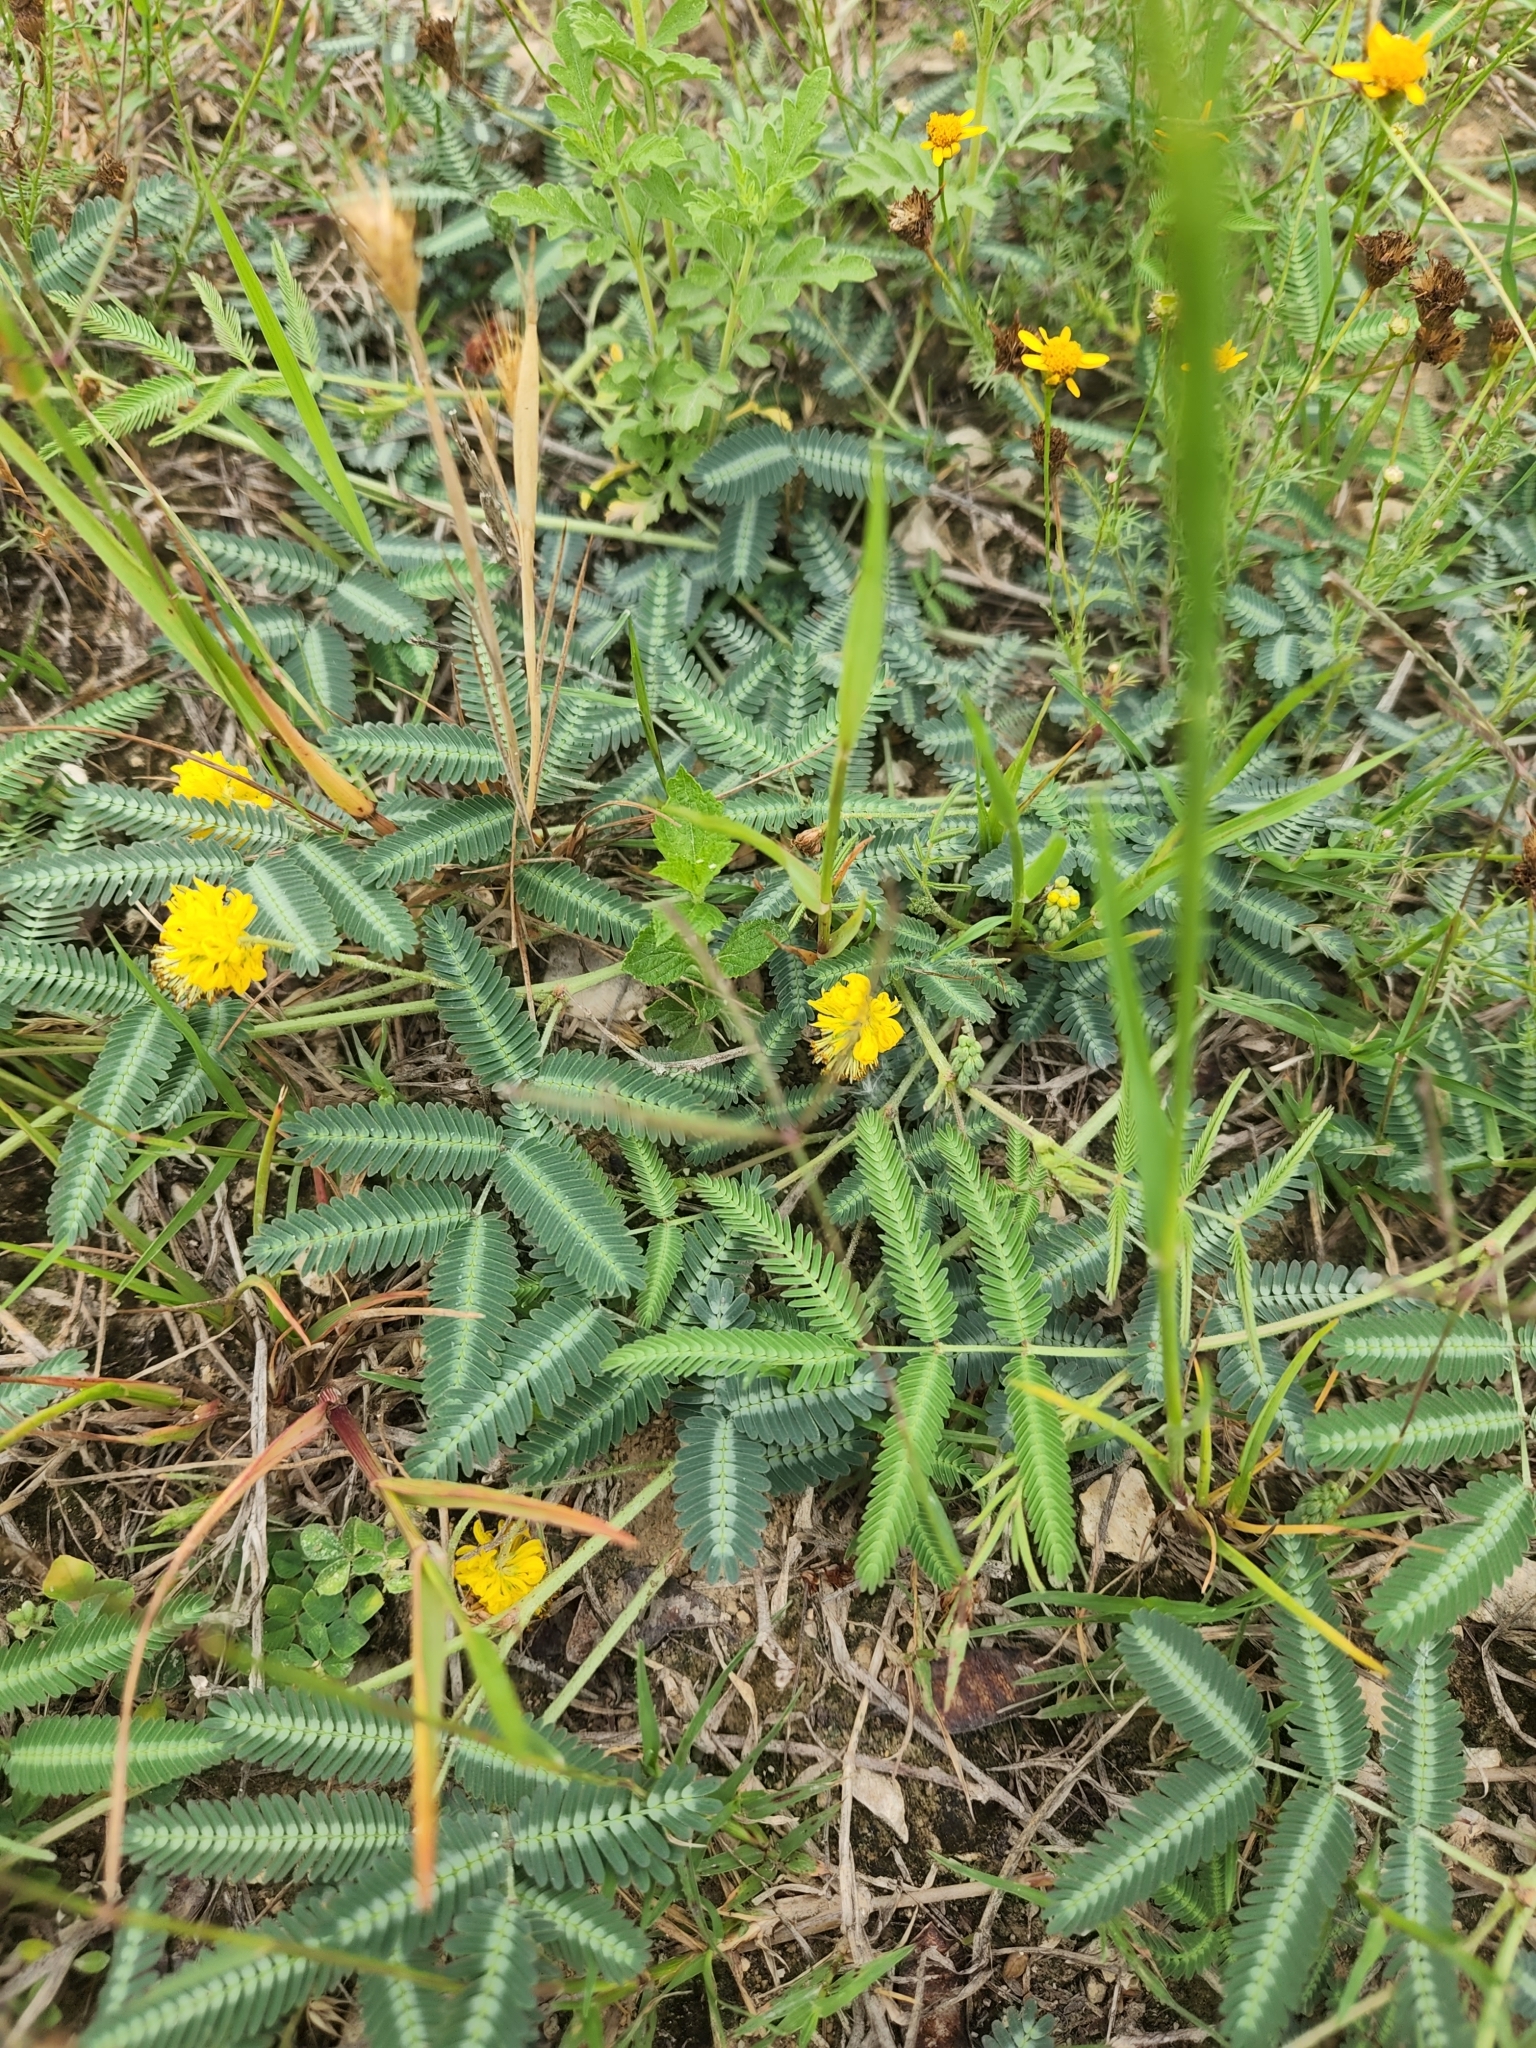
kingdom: Plantae
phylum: Tracheophyta
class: Magnoliopsida
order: Fabales
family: Fabaceae
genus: Neptunia
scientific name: Neptunia pubescens
